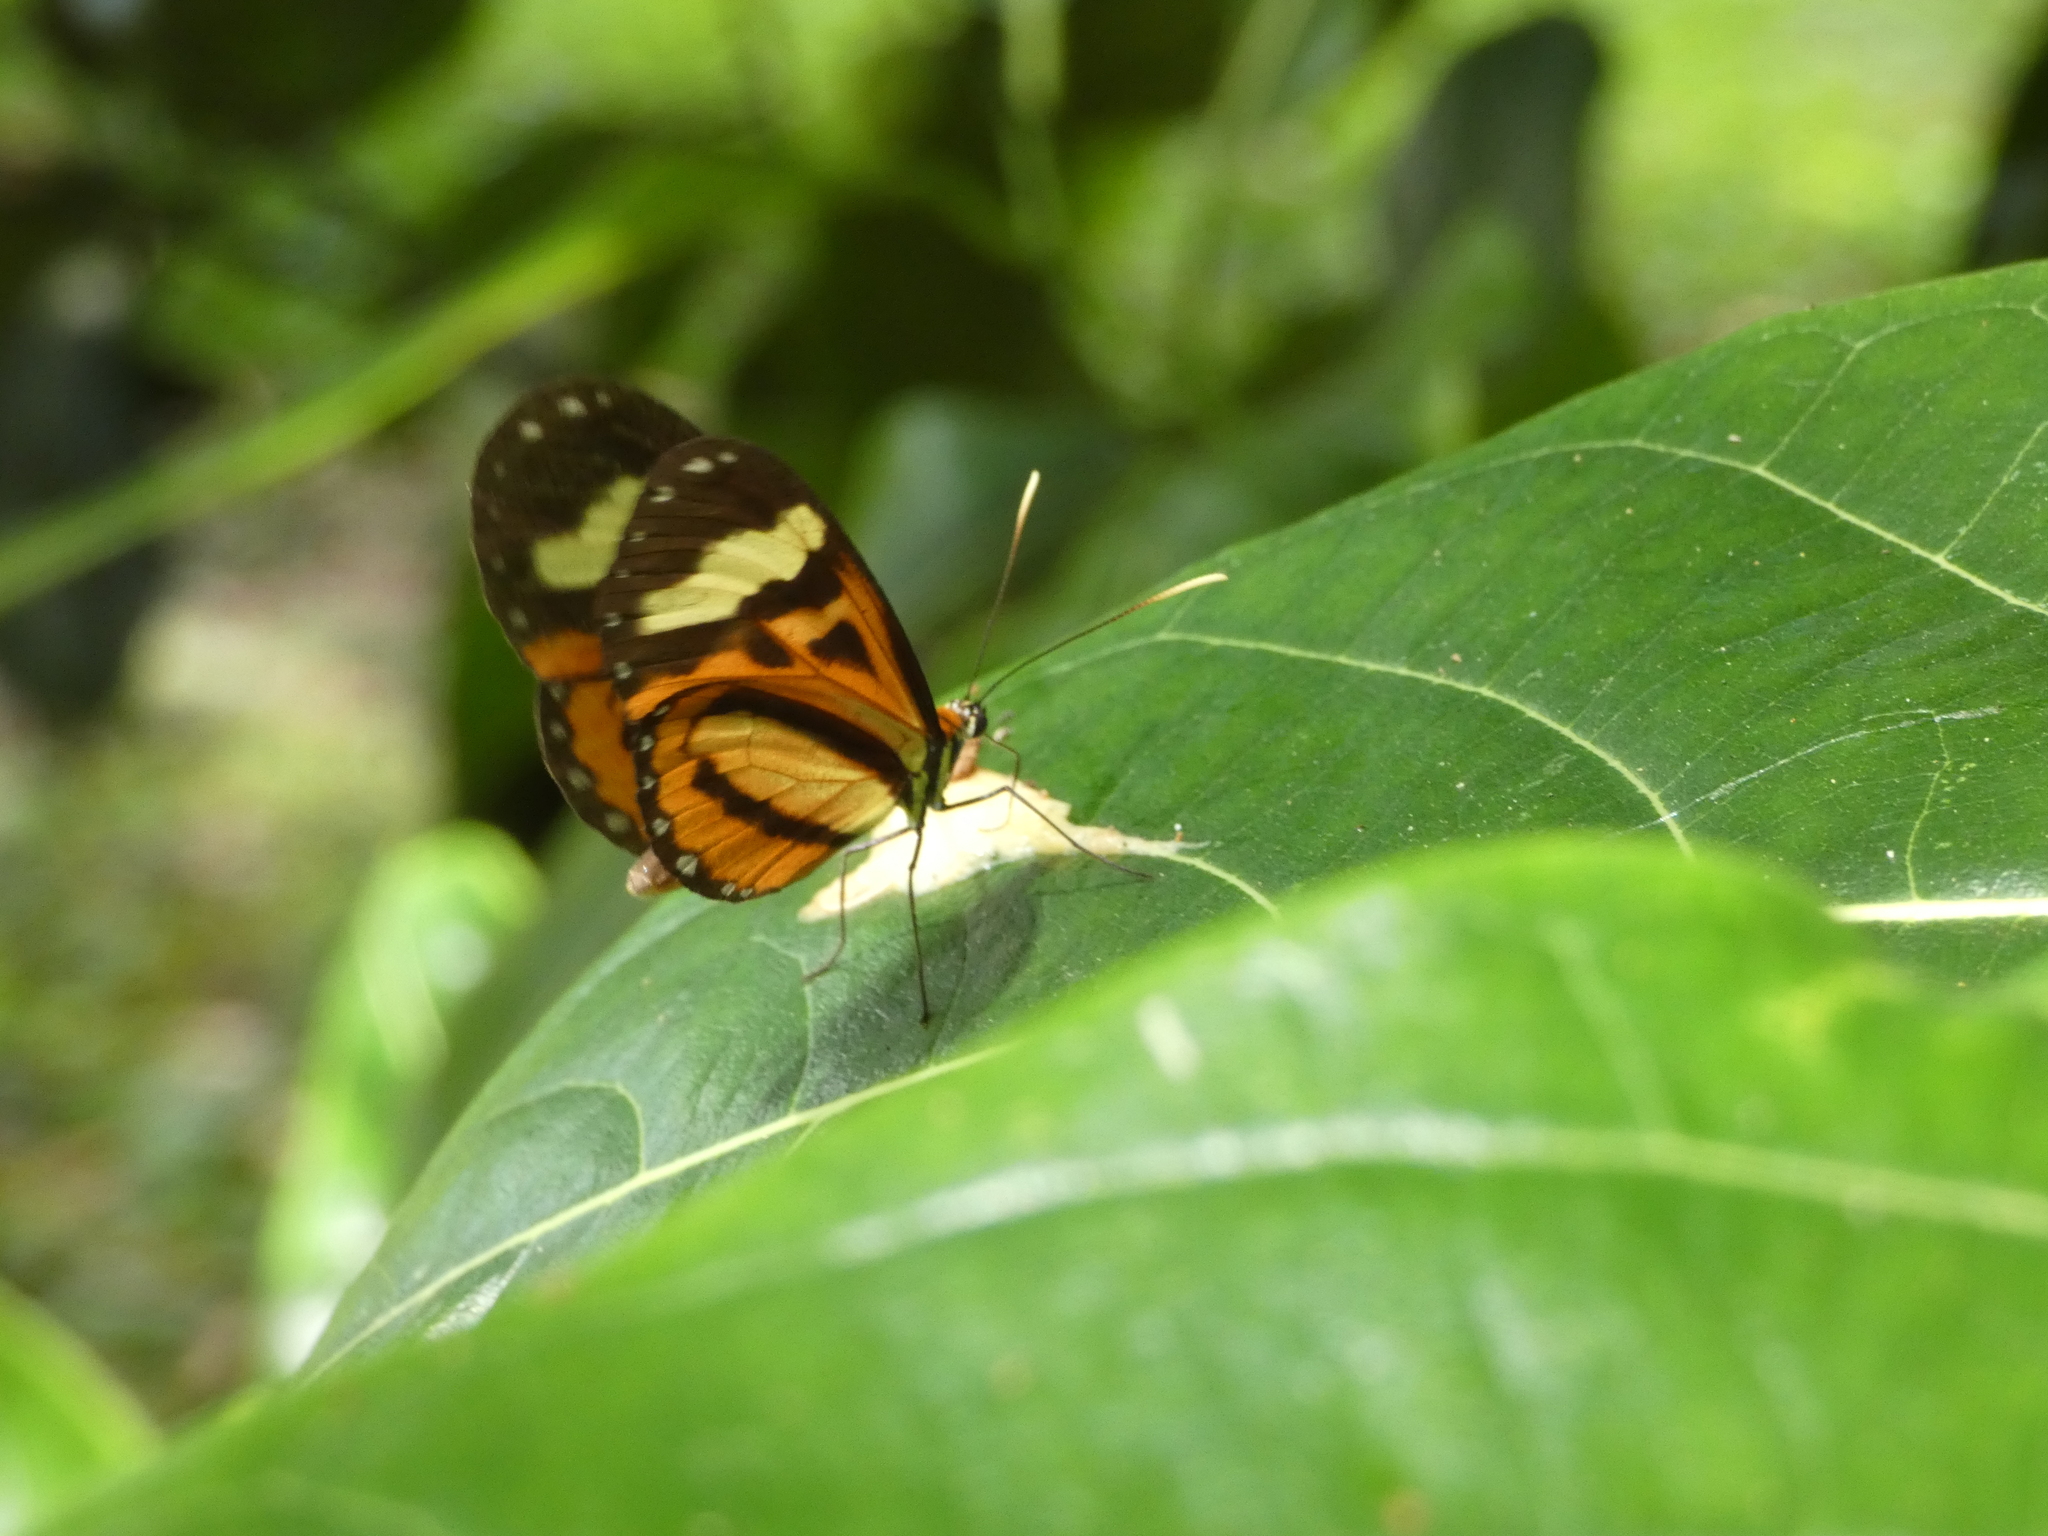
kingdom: Animalia
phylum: Arthropoda
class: Insecta
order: Lepidoptera
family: Nymphalidae
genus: Hypothyris
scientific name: Hypothyris euclea
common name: Euclea tigerwing
